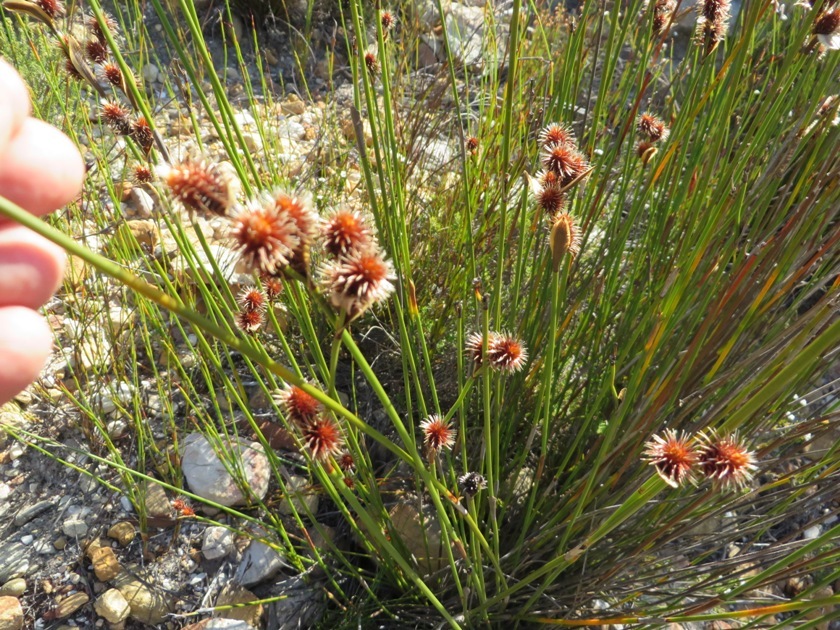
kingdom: Plantae
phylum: Tracheophyta
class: Liliopsida
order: Poales
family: Restionaceae
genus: Hypodiscus
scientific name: Hypodiscus alboaristatus
